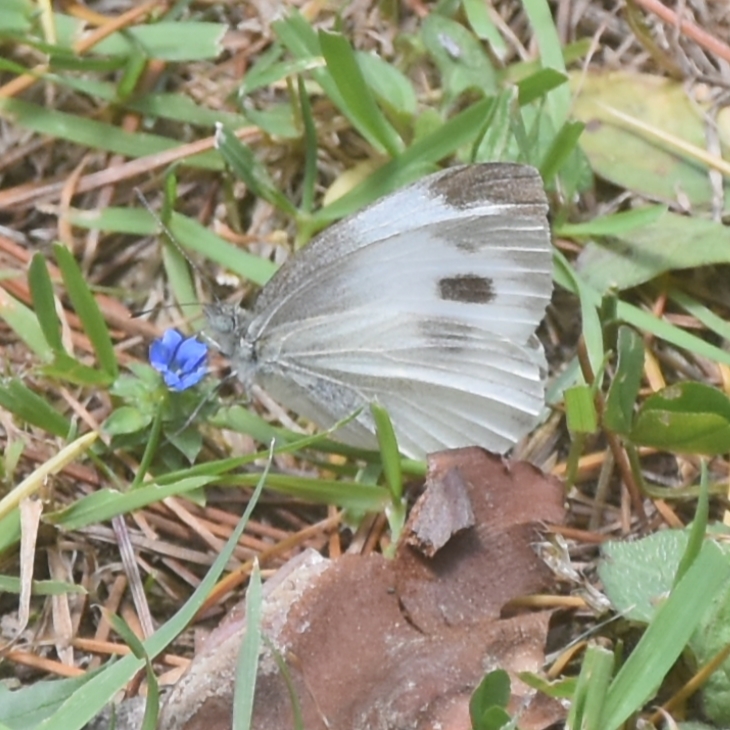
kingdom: Animalia
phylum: Arthropoda
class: Insecta
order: Lepidoptera
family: Pieridae
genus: Pieris
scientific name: Pieris canidia
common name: Indian cabbage white
